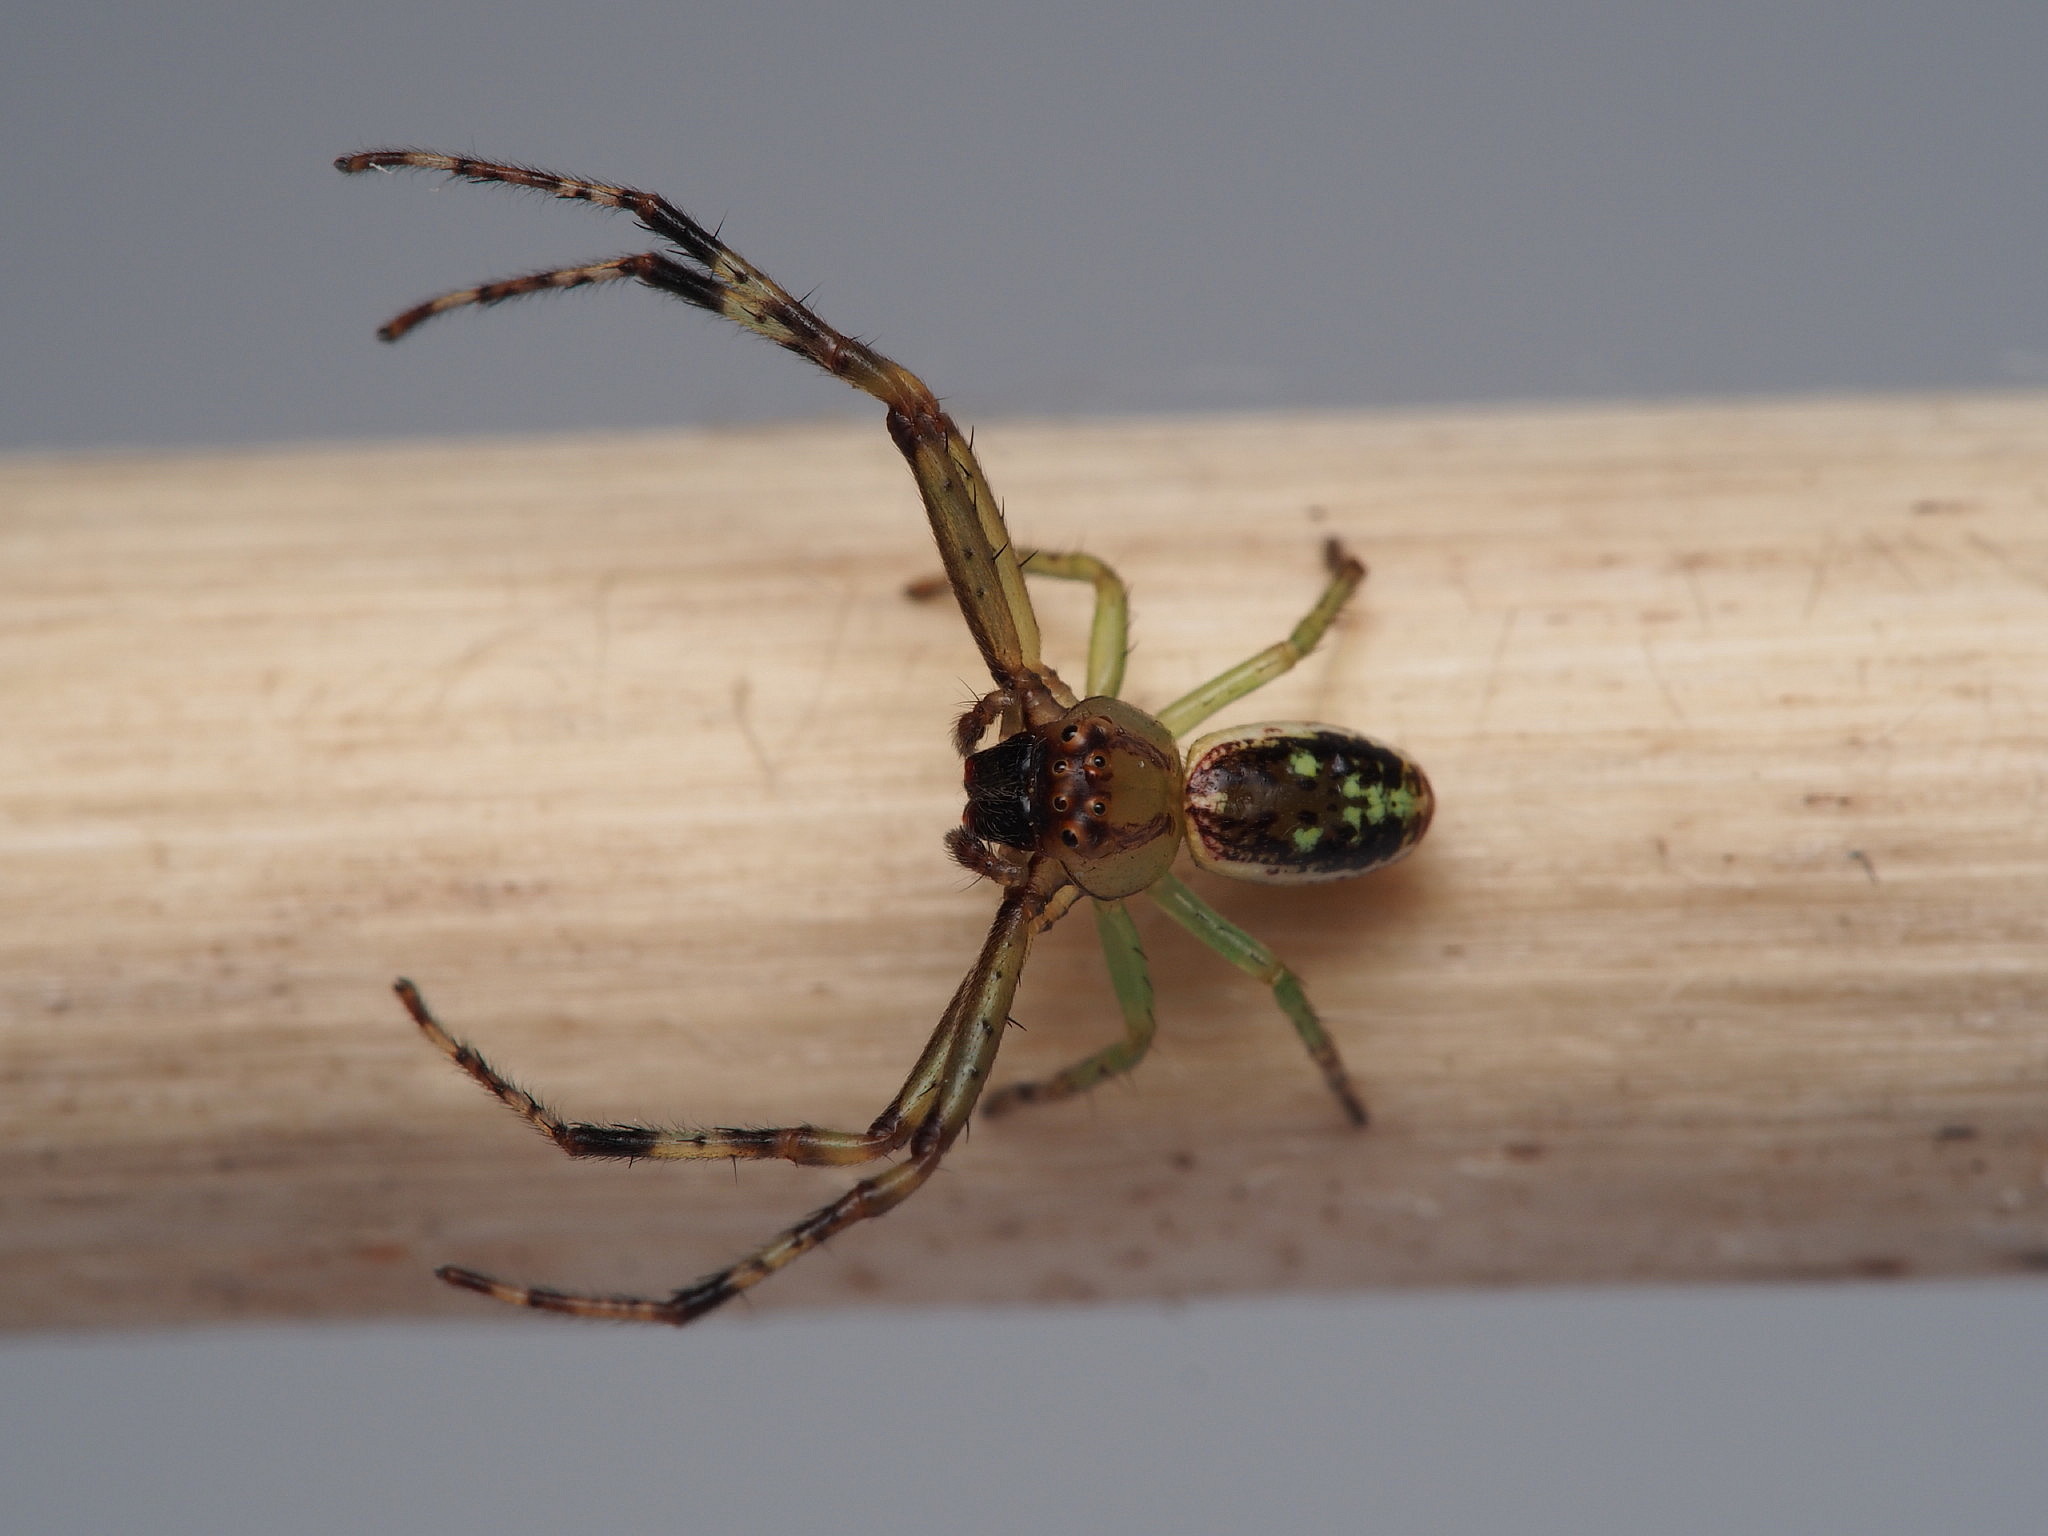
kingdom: Animalia
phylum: Arthropoda
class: Arachnida
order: Araneae
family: Thomisidae
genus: Diaea
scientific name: Diaea ambara
